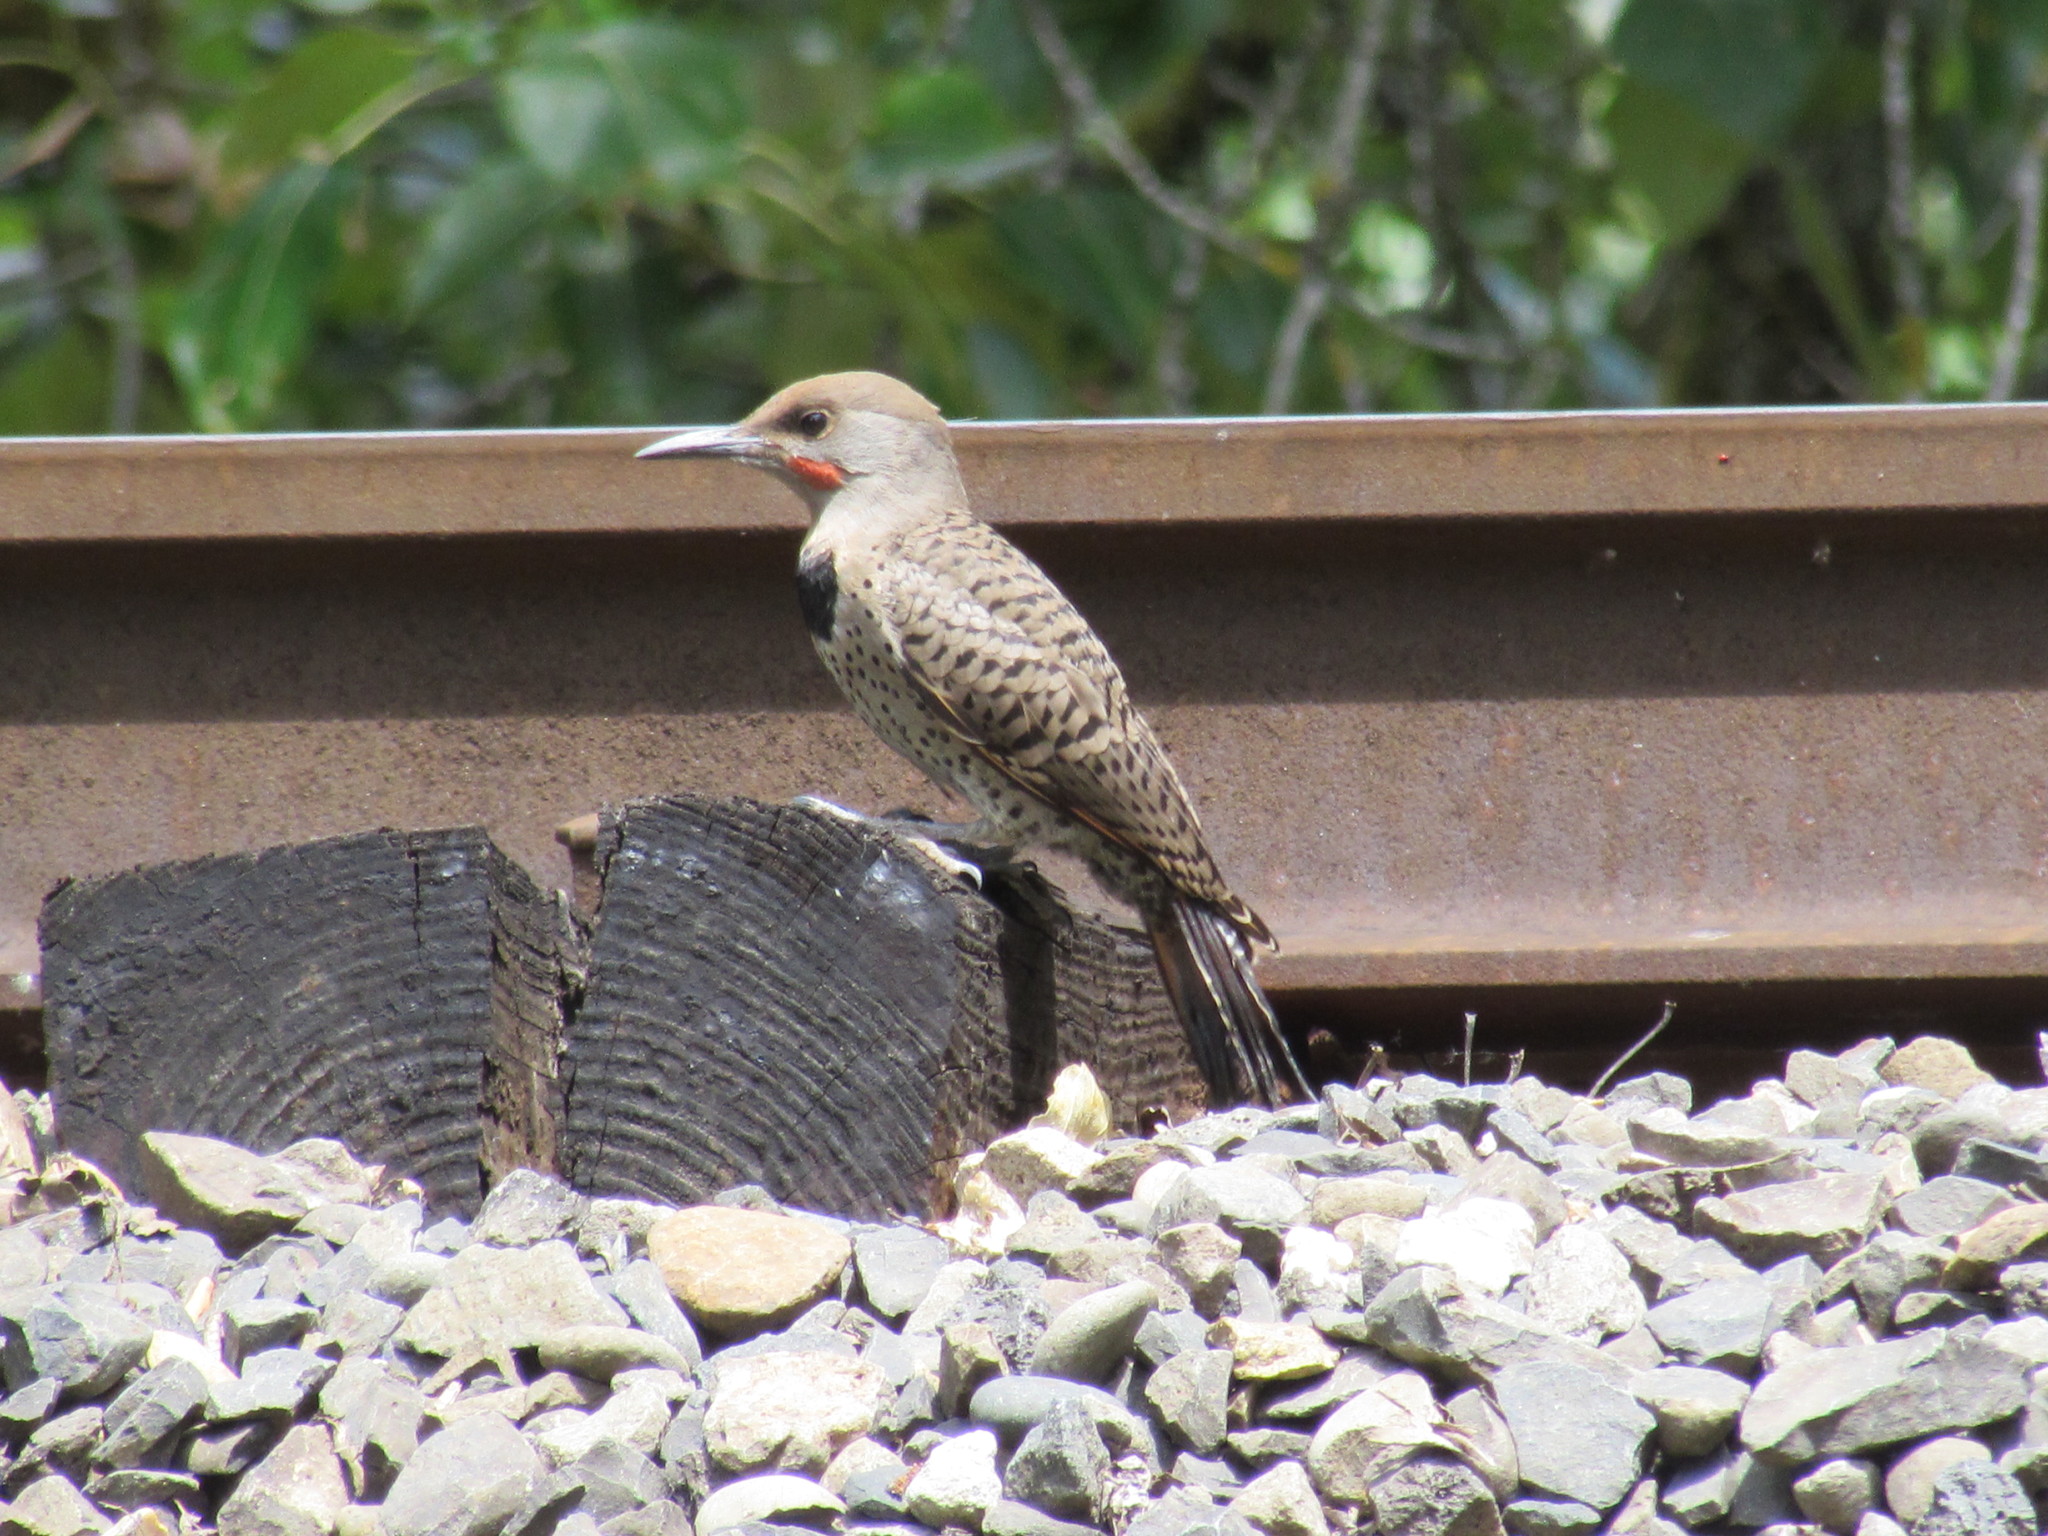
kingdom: Animalia
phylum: Chordata
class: Aves
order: Piciformes
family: Picidae
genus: Colaptes
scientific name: Colaptes auratus
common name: Northern flicker
